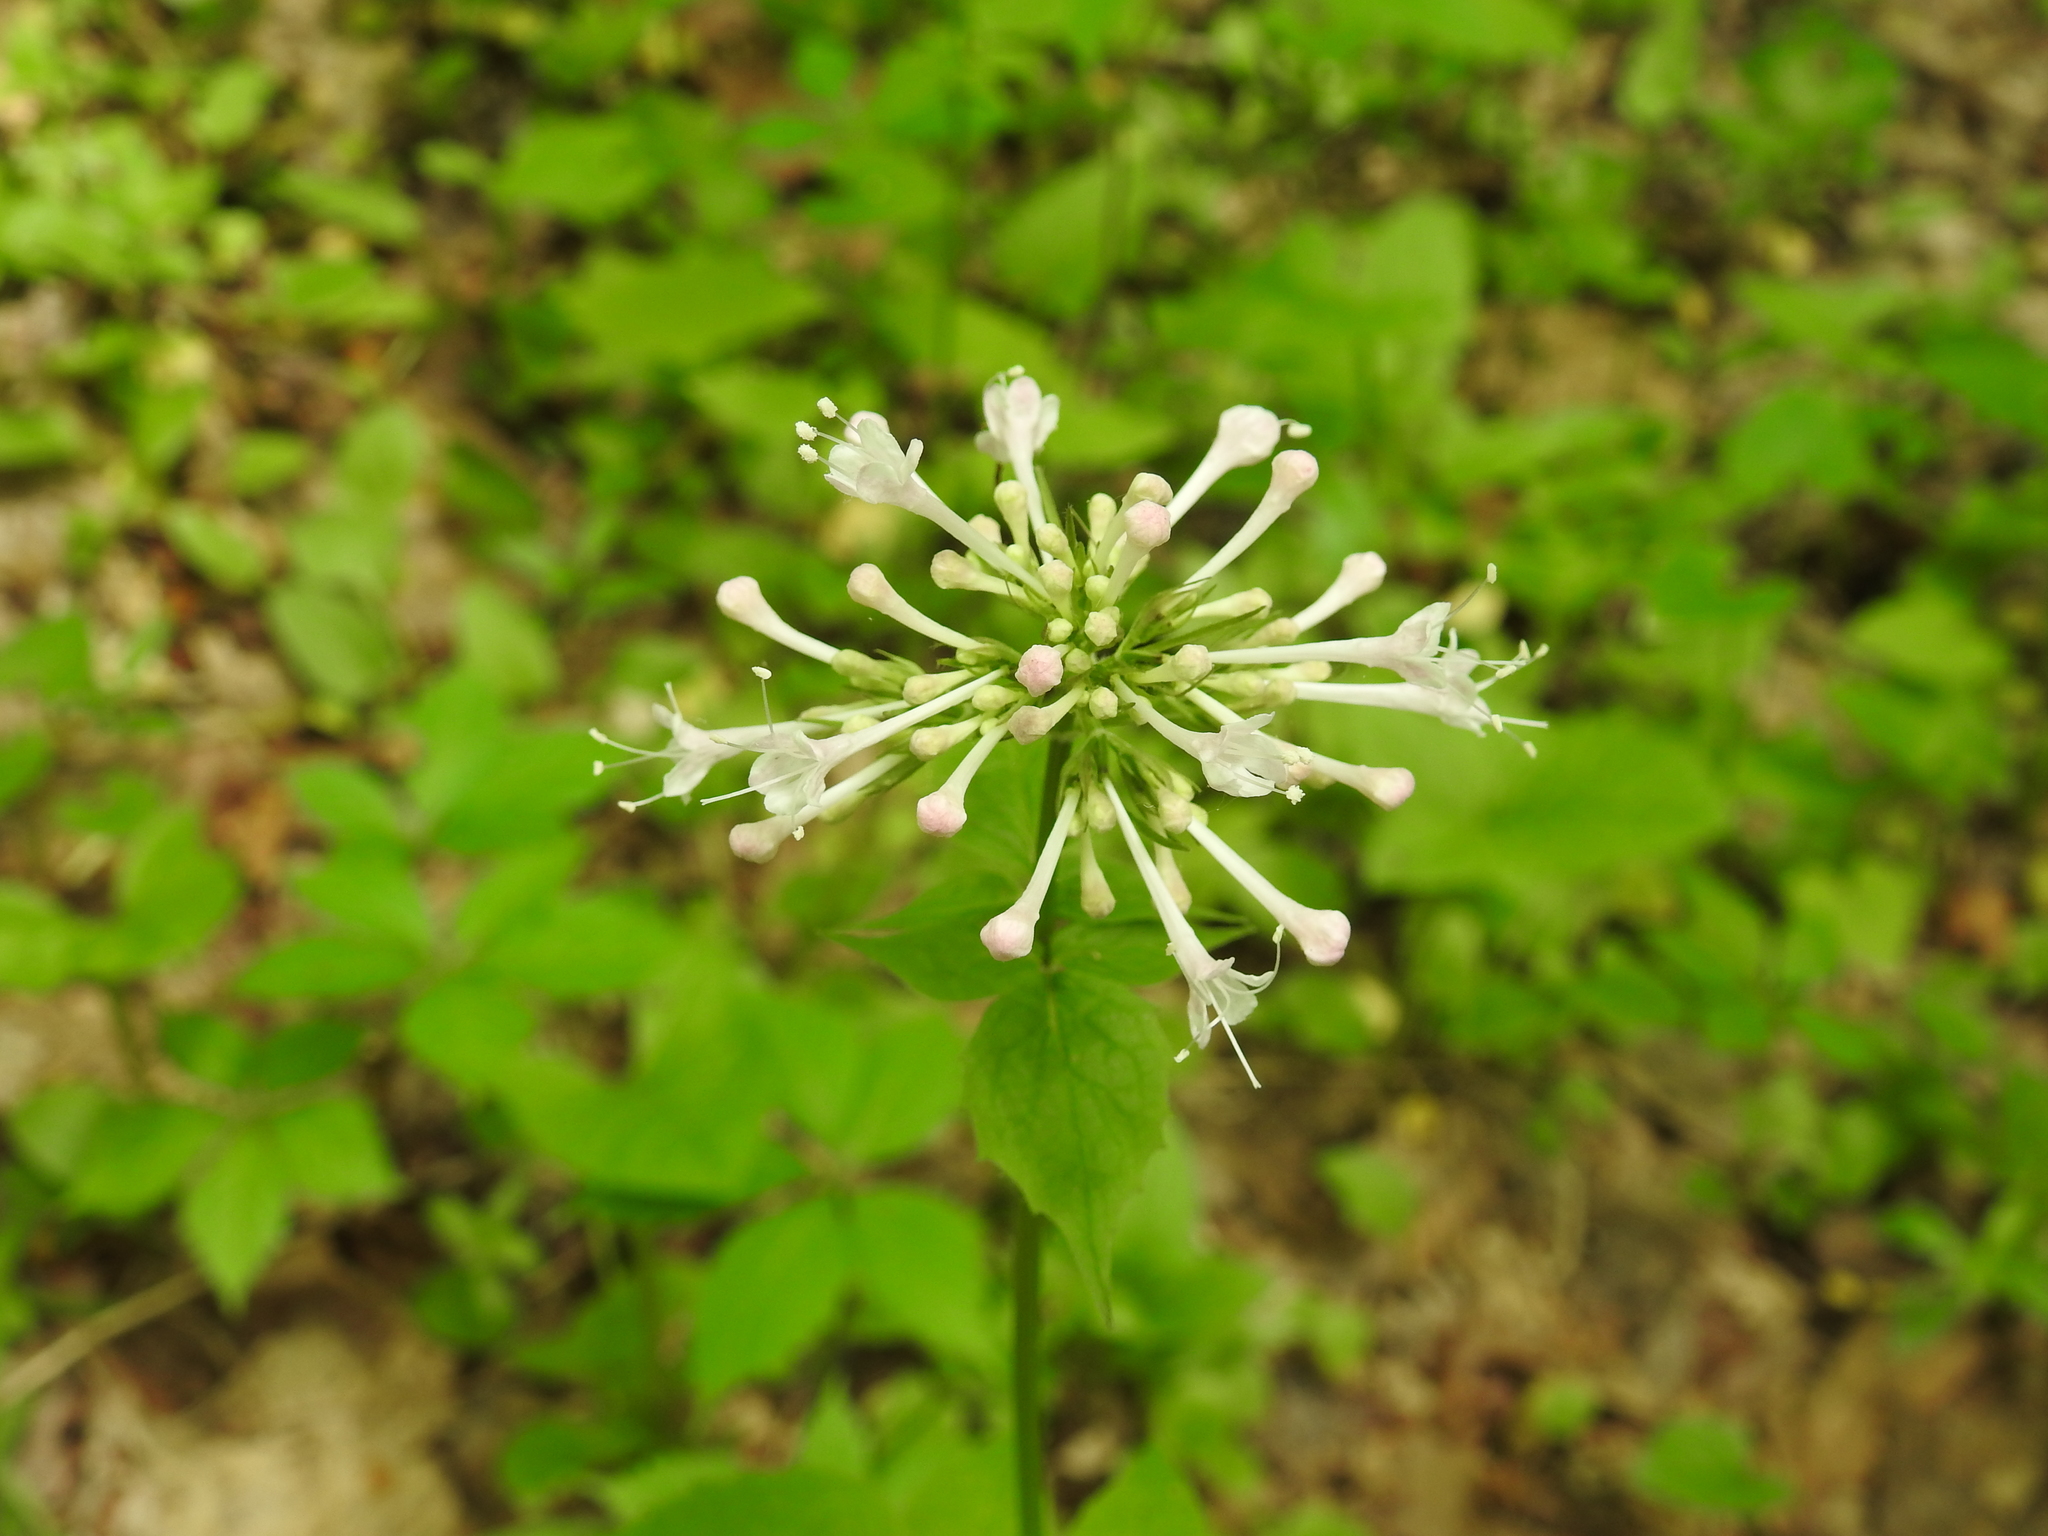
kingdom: Plantae
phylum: Tracheophyta
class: Magnoliopsida
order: Dipsacales
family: Caprifoliaceae
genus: Valeriana
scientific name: Valeriana pauciflora
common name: Long-tube valeriana
